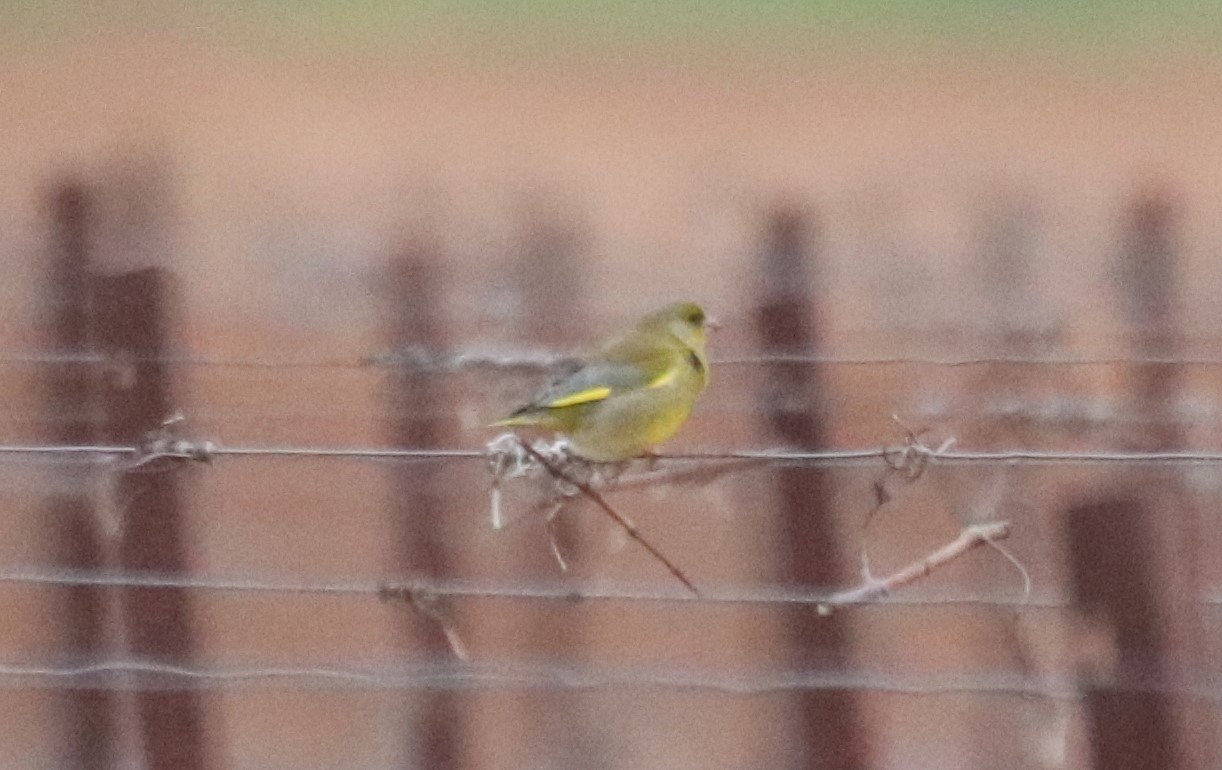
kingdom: Plantae
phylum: Tracheophyta
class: Liliopsida
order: Poales
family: Poaceae
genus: Chloris
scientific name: Chloris chloris
